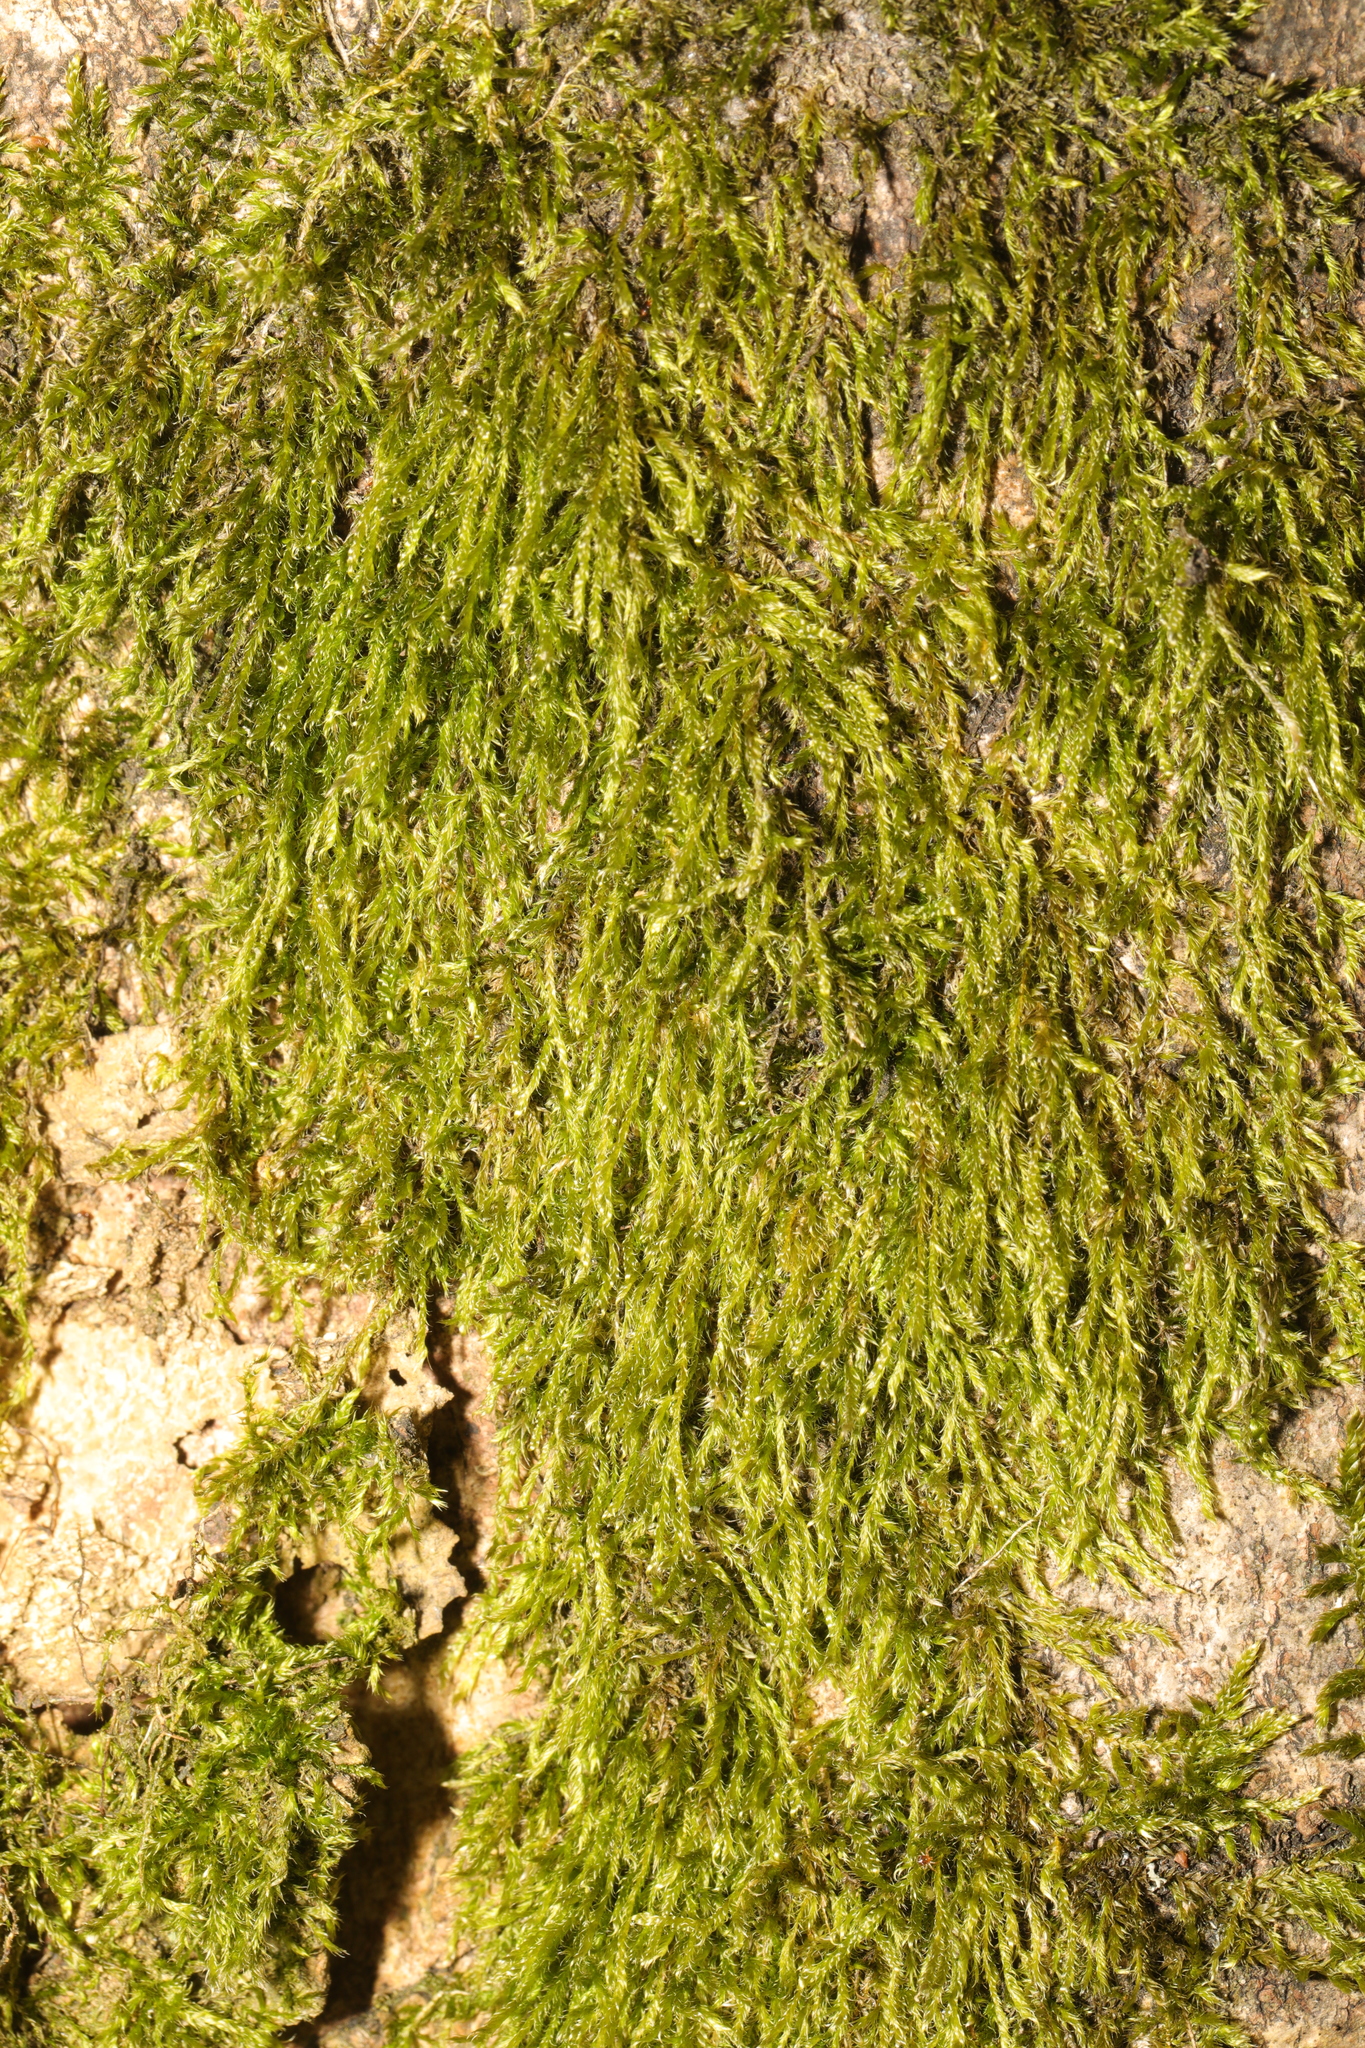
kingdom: Plantae
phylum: Bryophyta
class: Bryopsida
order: Hypnales
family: Hypnaceae
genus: Hypnum
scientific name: Hypnum cupressiforme
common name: Cypress-leaved plait-moss
